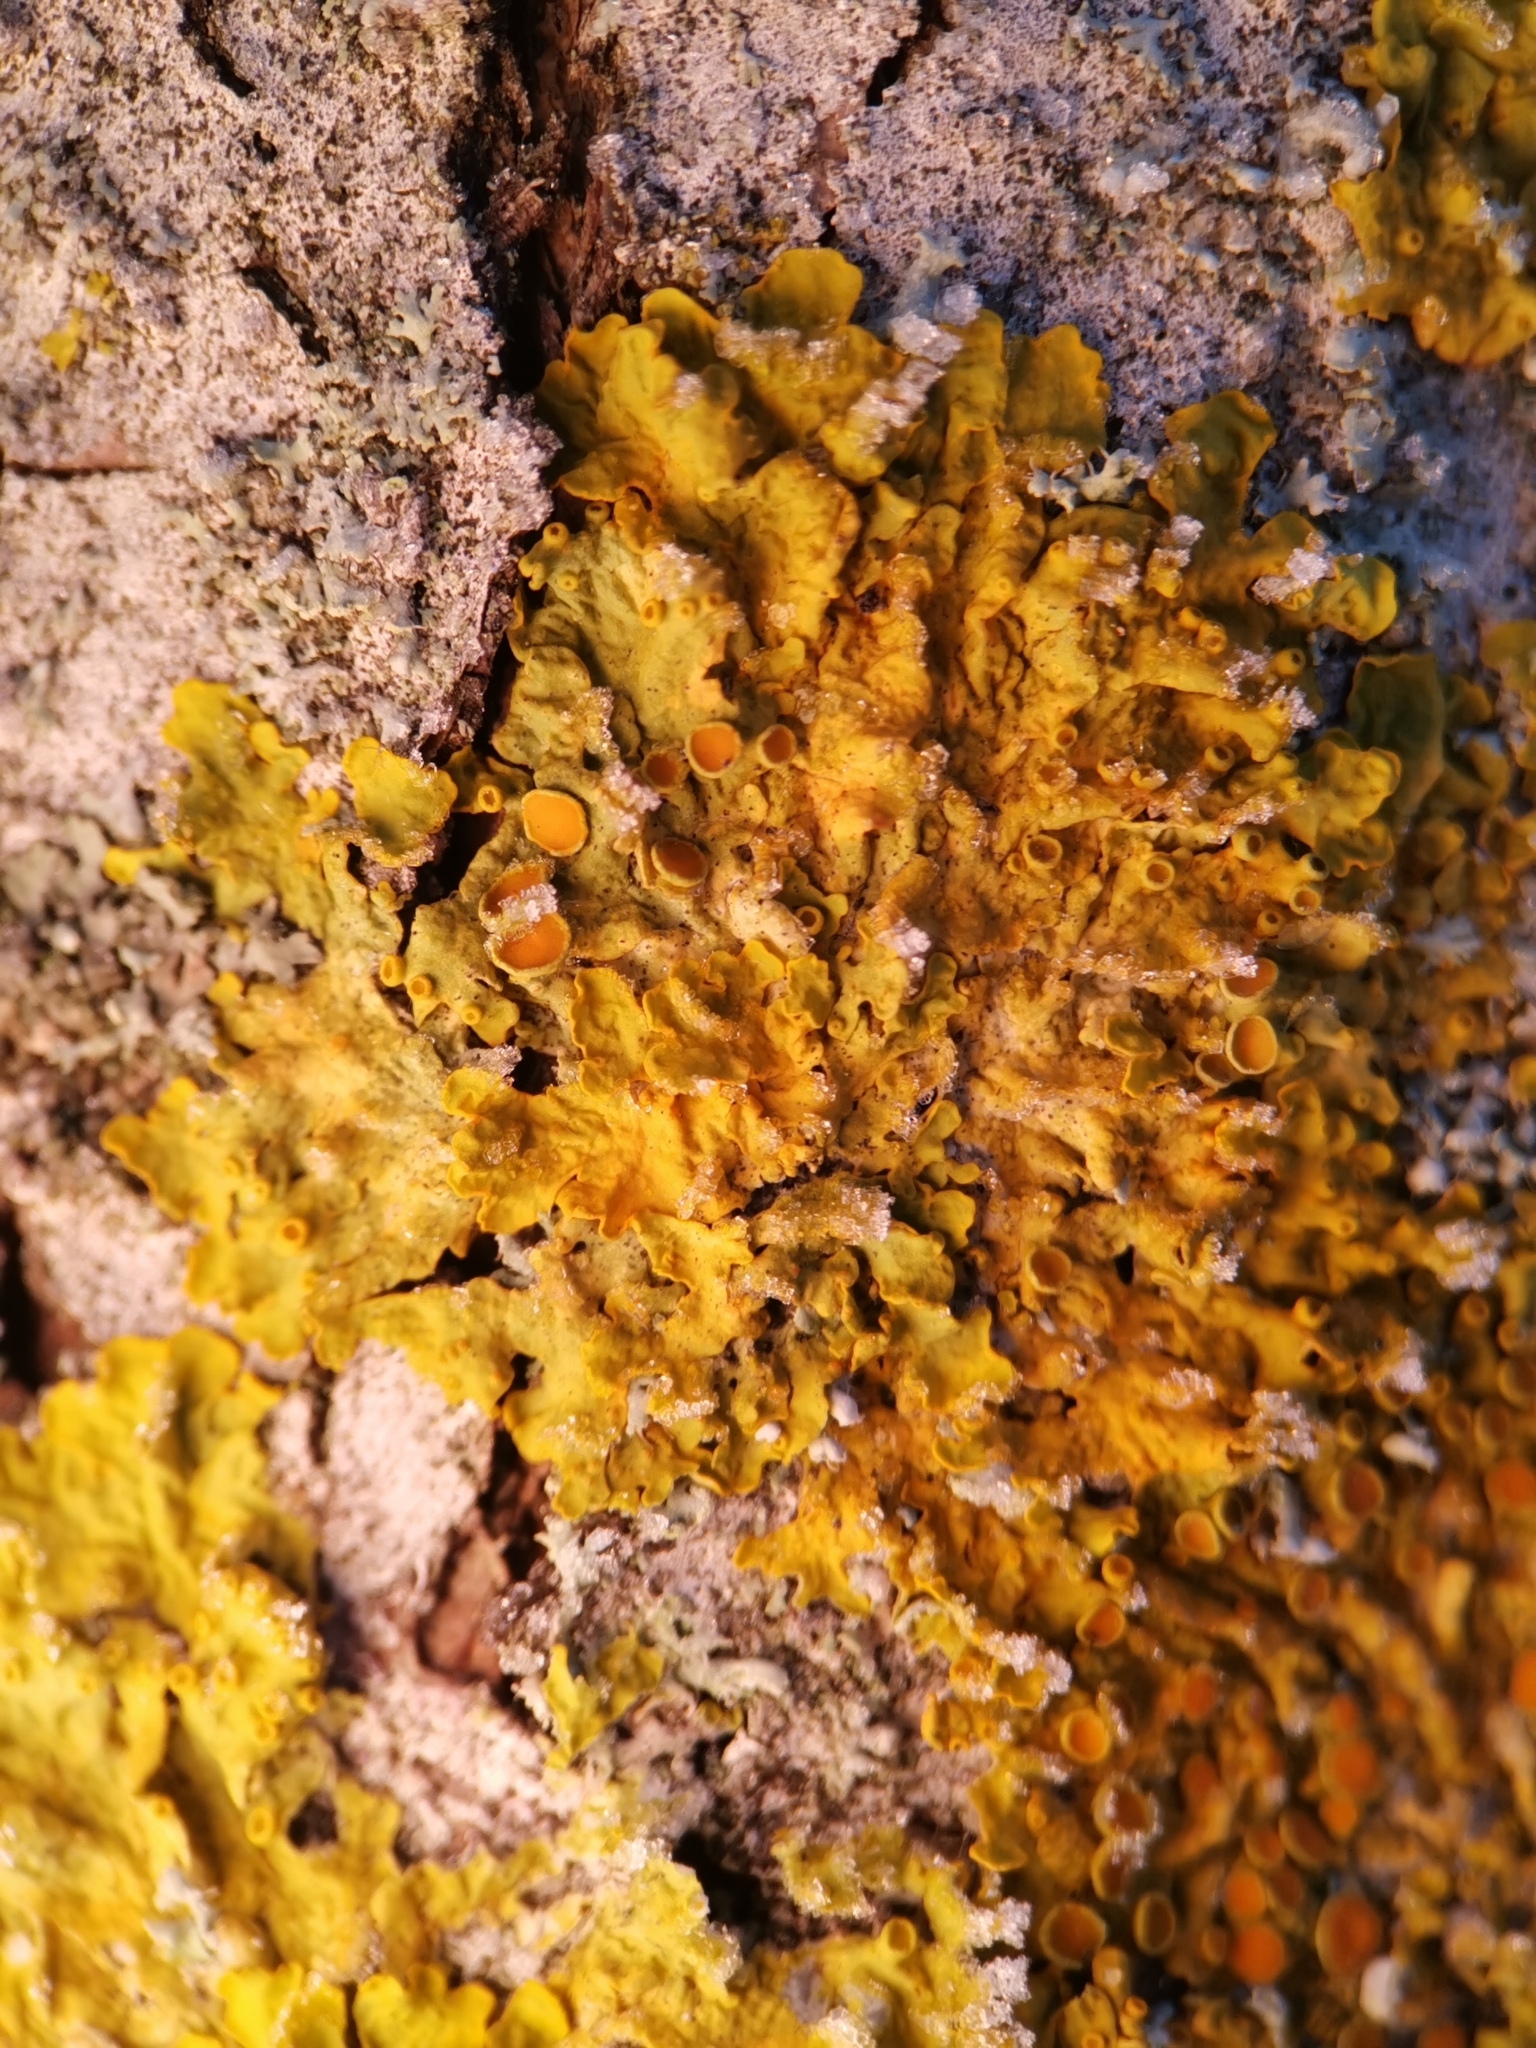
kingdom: Fungi
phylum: Ascomycota
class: Lecanoromycetes
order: Teloschistales
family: Teloschistaceae
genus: Xanthoria
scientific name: Xanthoria parietina
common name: Common orange lichen
